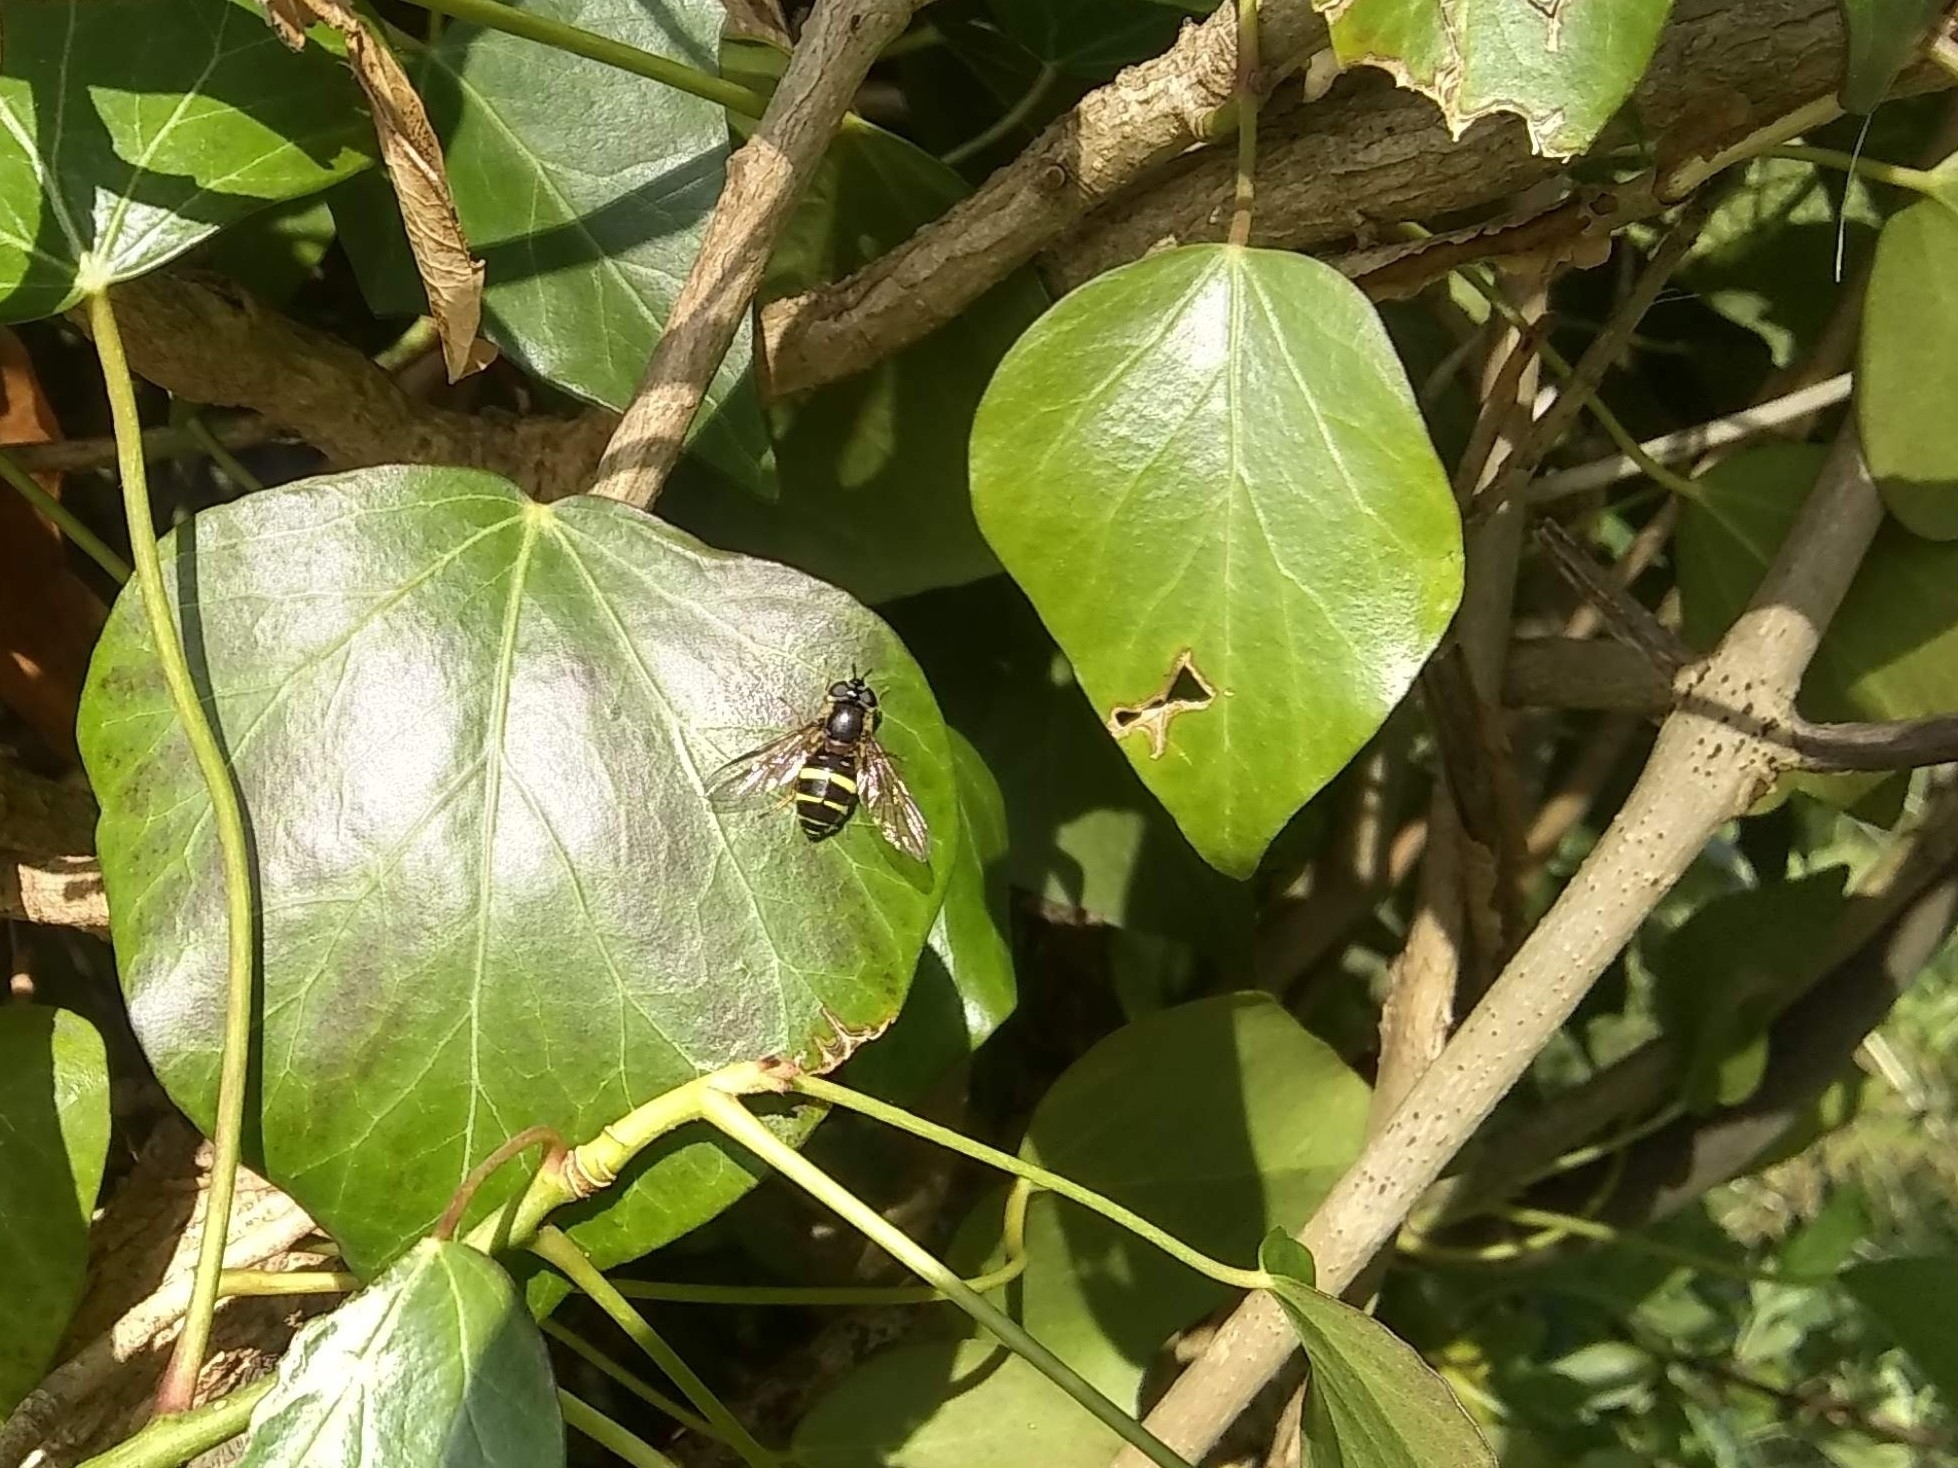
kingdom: Animalia
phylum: Arthropoda
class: Insecta
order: Diptera
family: Syrphidae
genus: Dasysyrphus
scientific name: Dasysyrphus tricinctus
